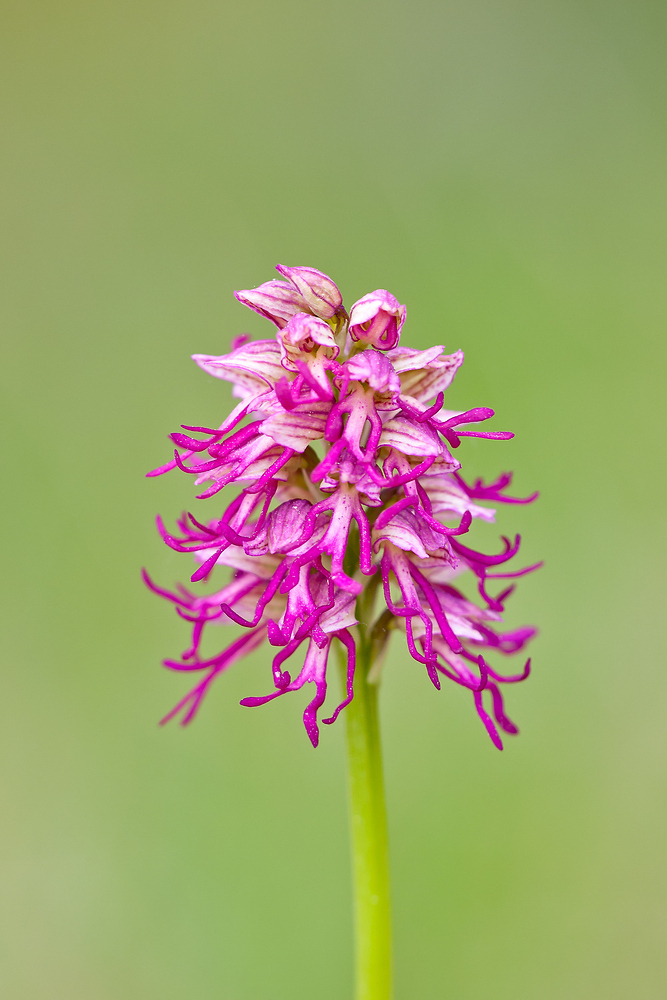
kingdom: Plantae
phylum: Tracheophyta
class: Liliopsida
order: Asparagales
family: Orchidaceae
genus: Orchis
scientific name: Orchis spuria
